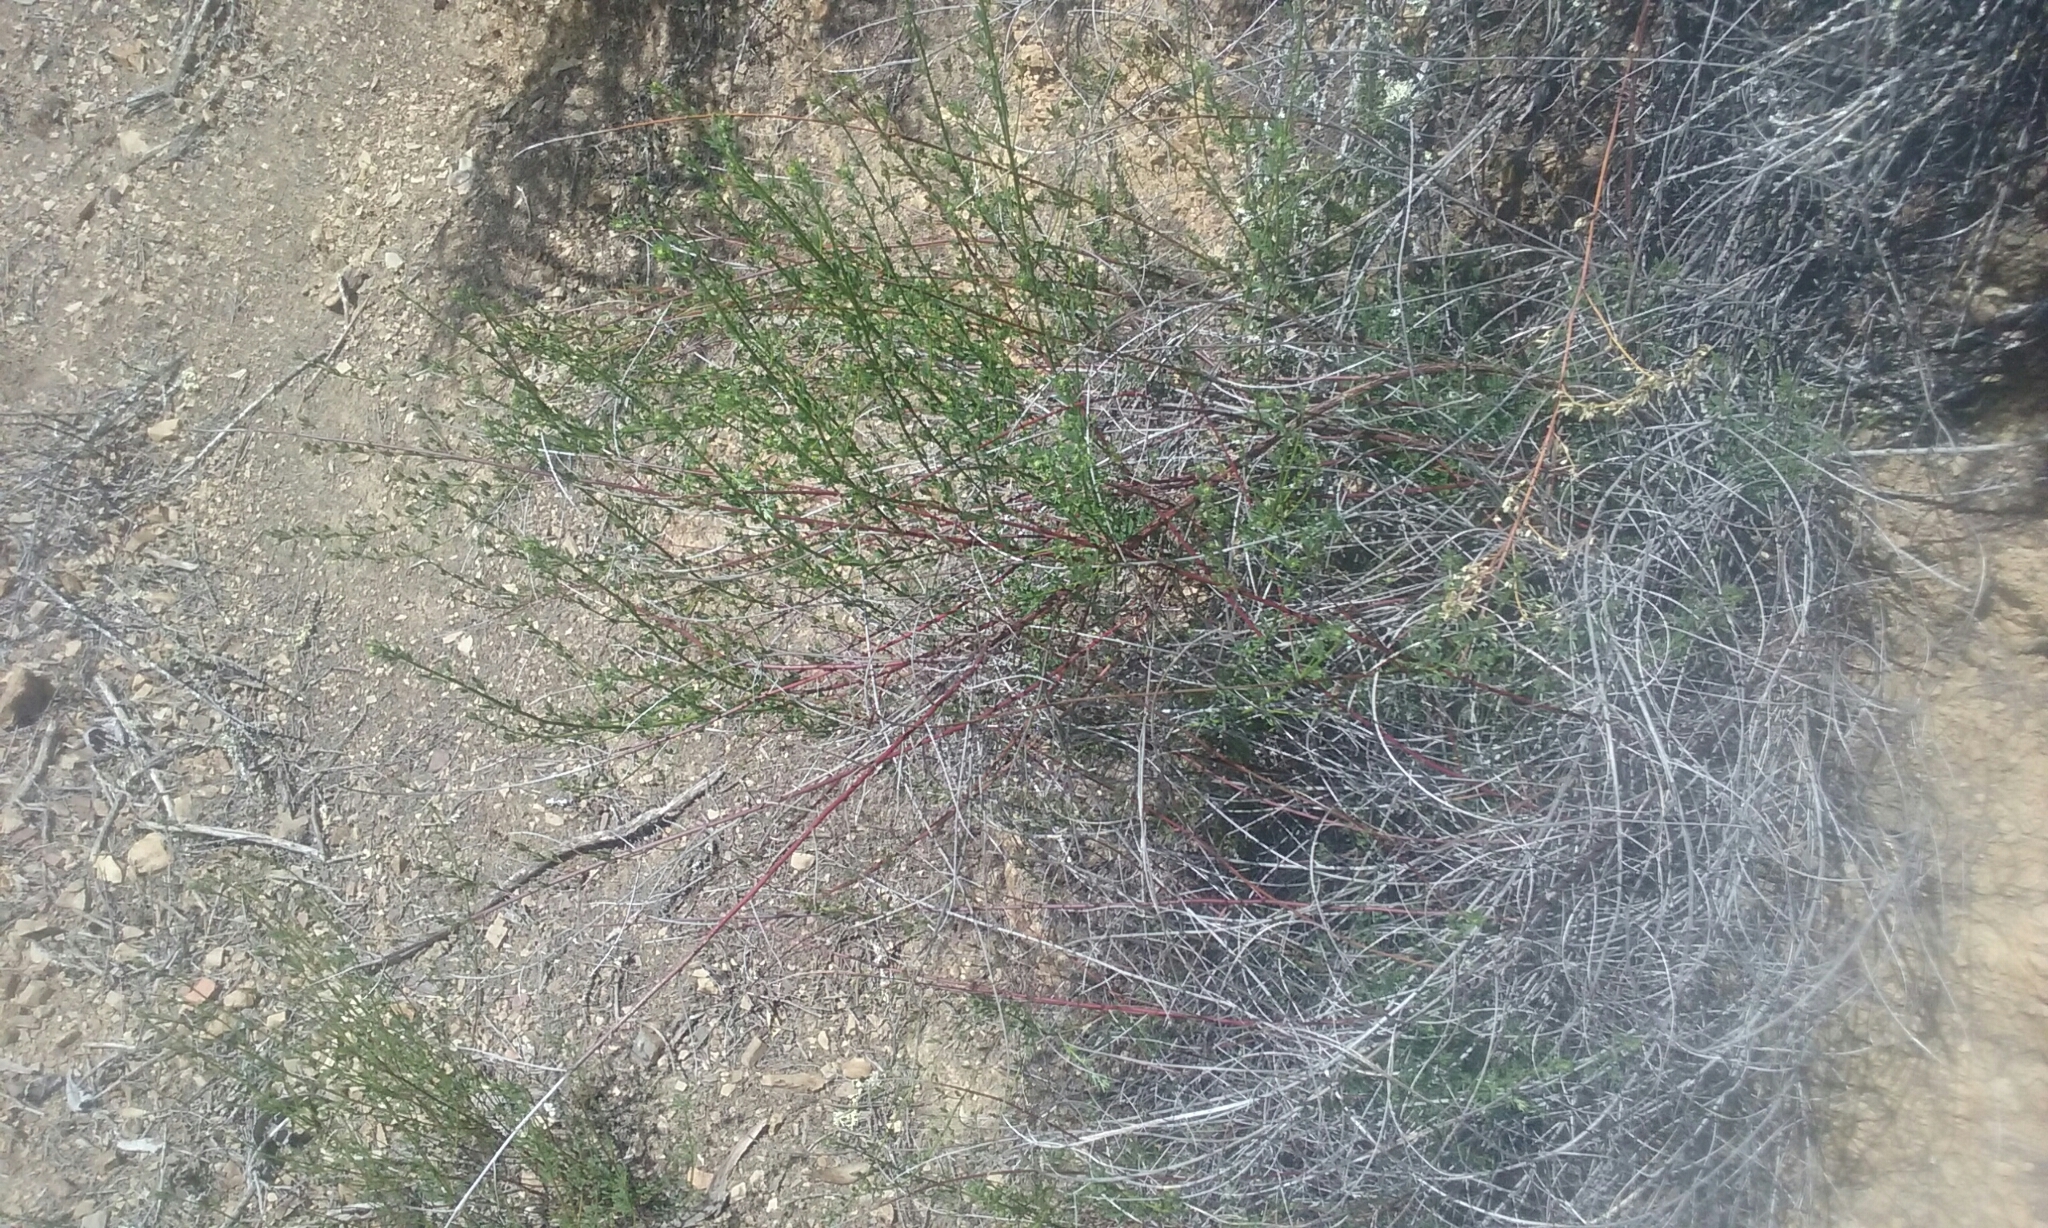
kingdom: Plantae
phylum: Tracheophyta
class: Magnoliopsida
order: Fabales
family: Fabaceae
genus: Acmispon
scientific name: Acmispon glaber
